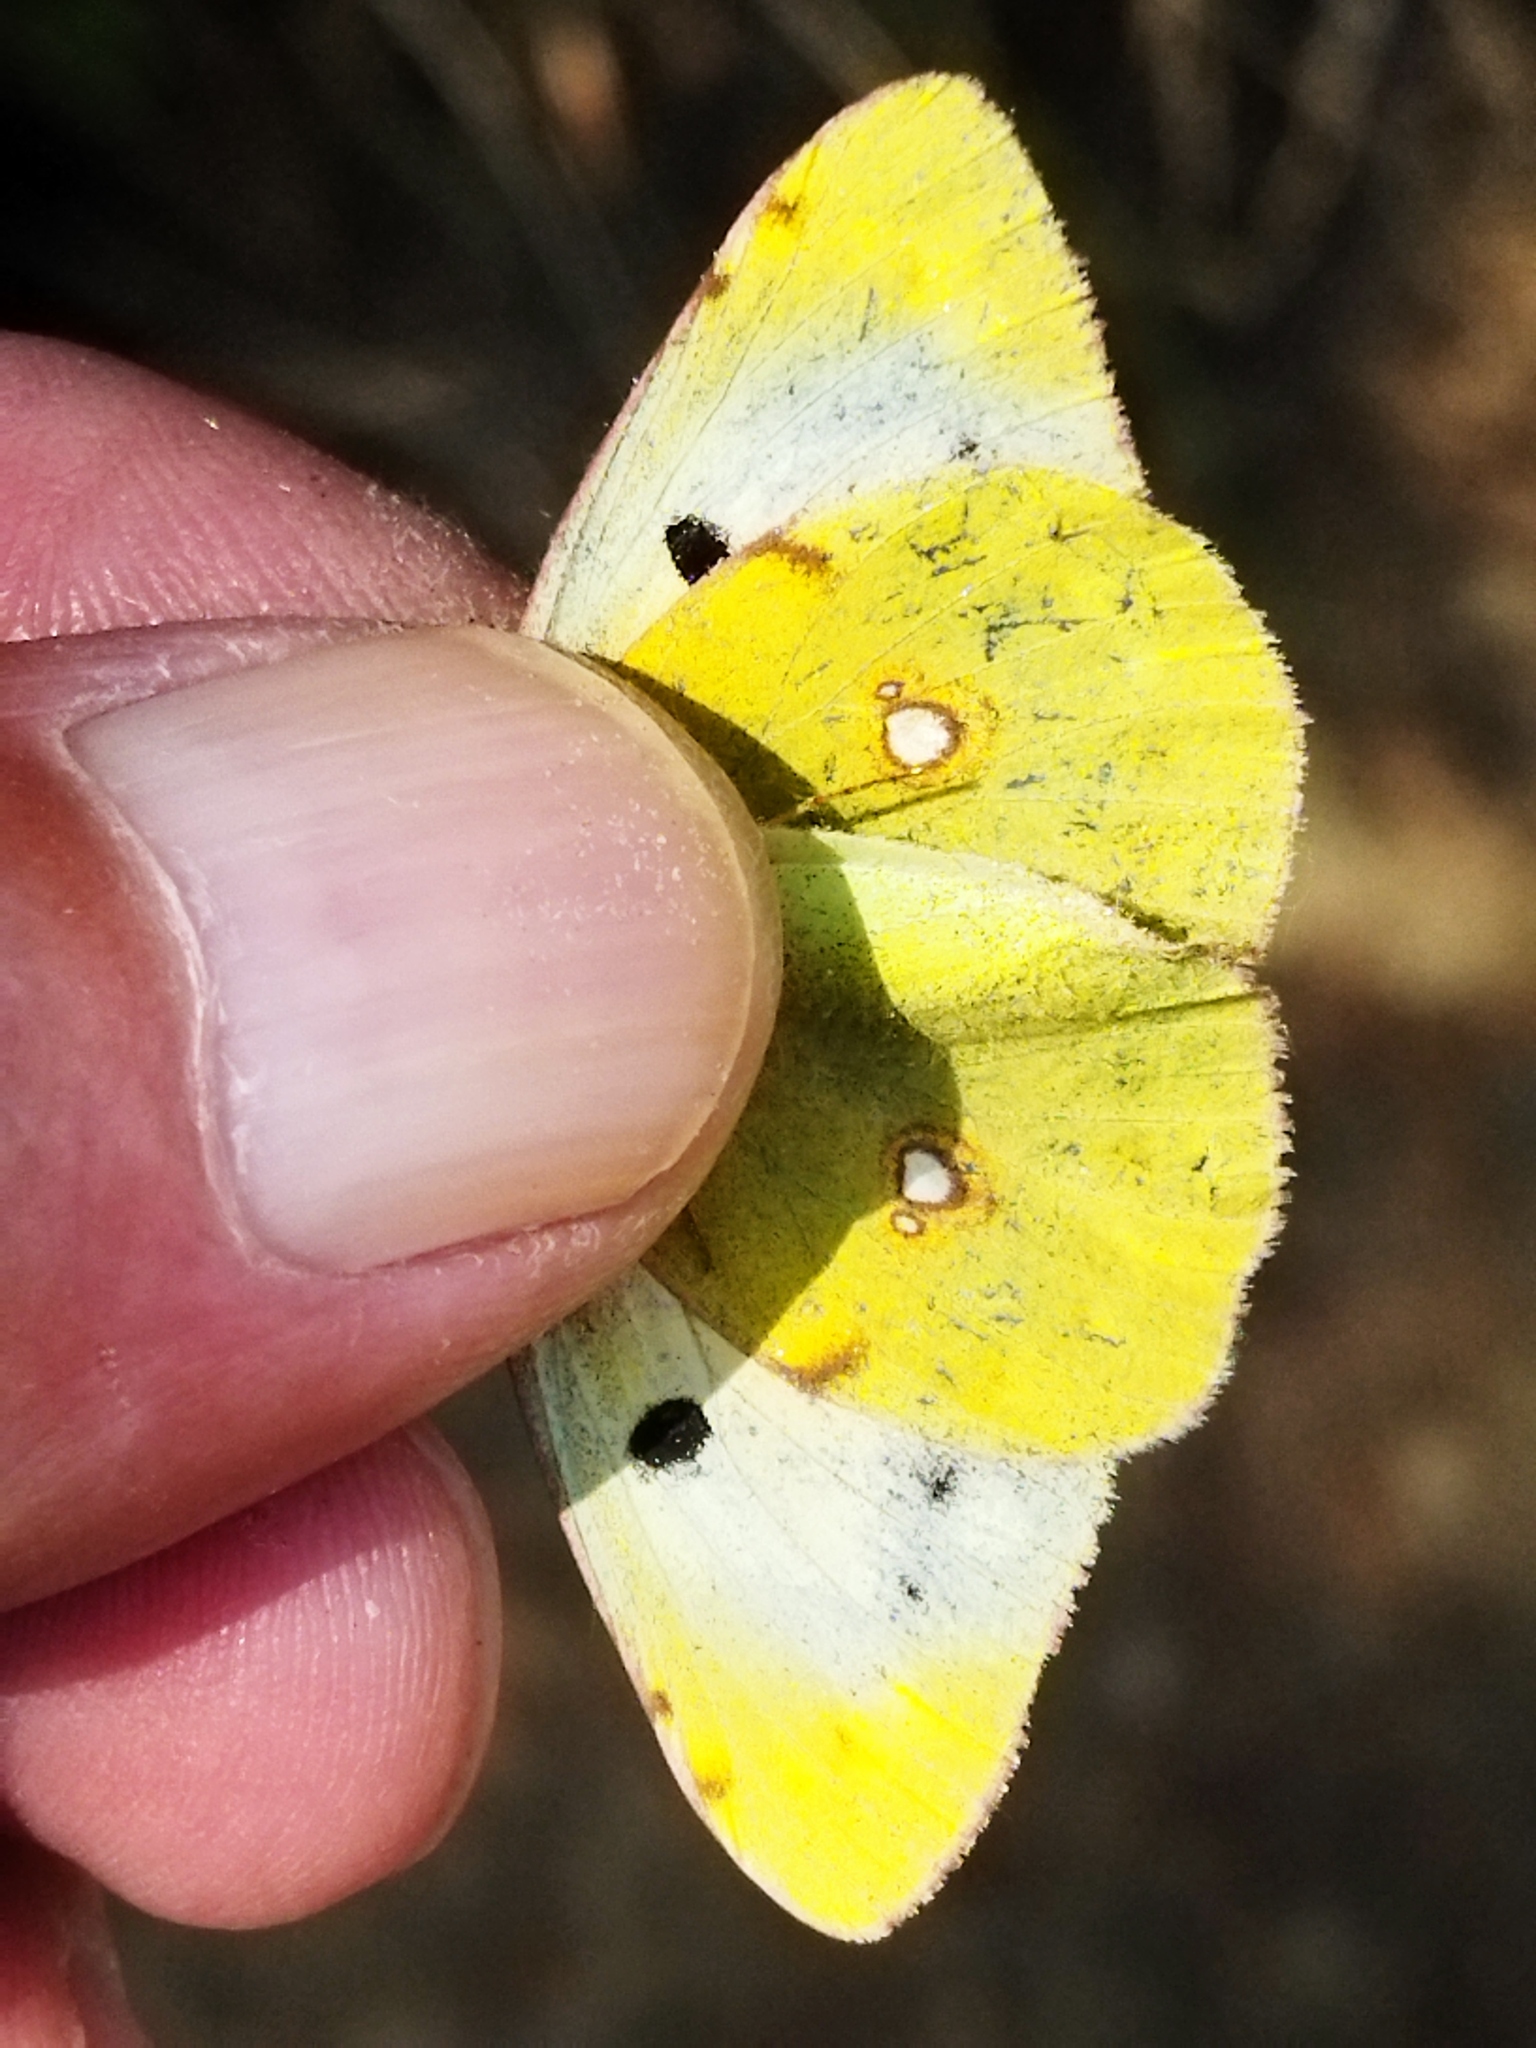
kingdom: Animalia
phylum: Arthropoda
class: Insecta
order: Lepidoptera
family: Pieridae
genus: Colias
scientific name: Colias croceus
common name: Clouded yellow
